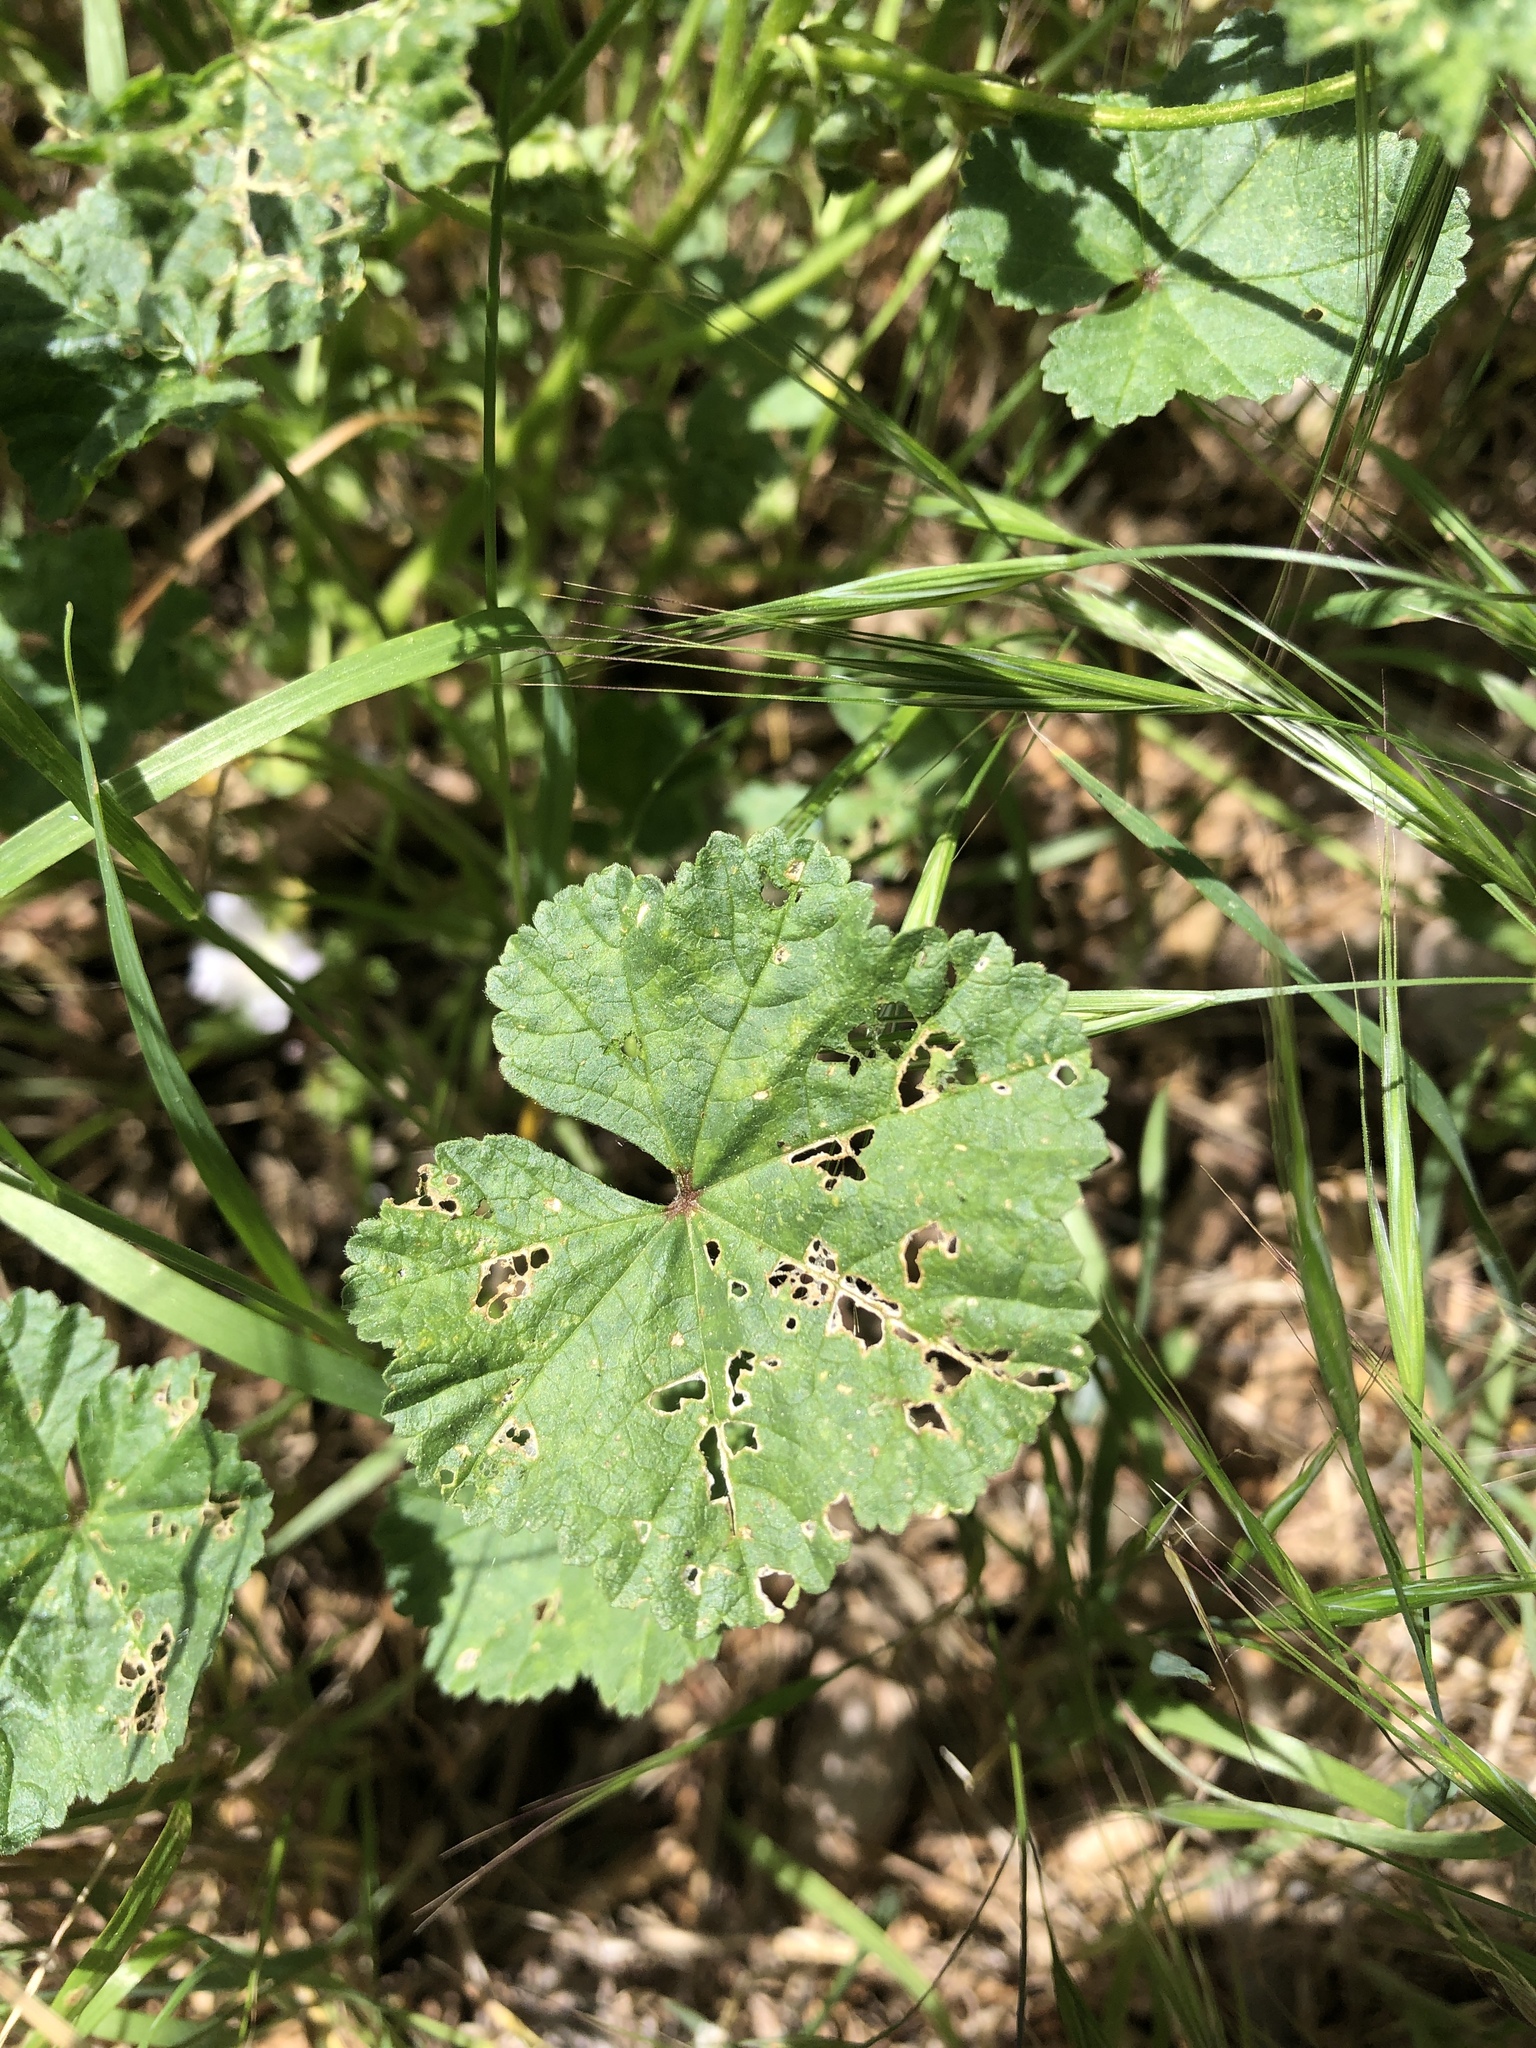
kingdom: Plantae
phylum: Tracheophyta
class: Magnoliopsida
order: Malvales
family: Malvaceae
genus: Malva
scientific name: Malva neglecta
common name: Common mallow
